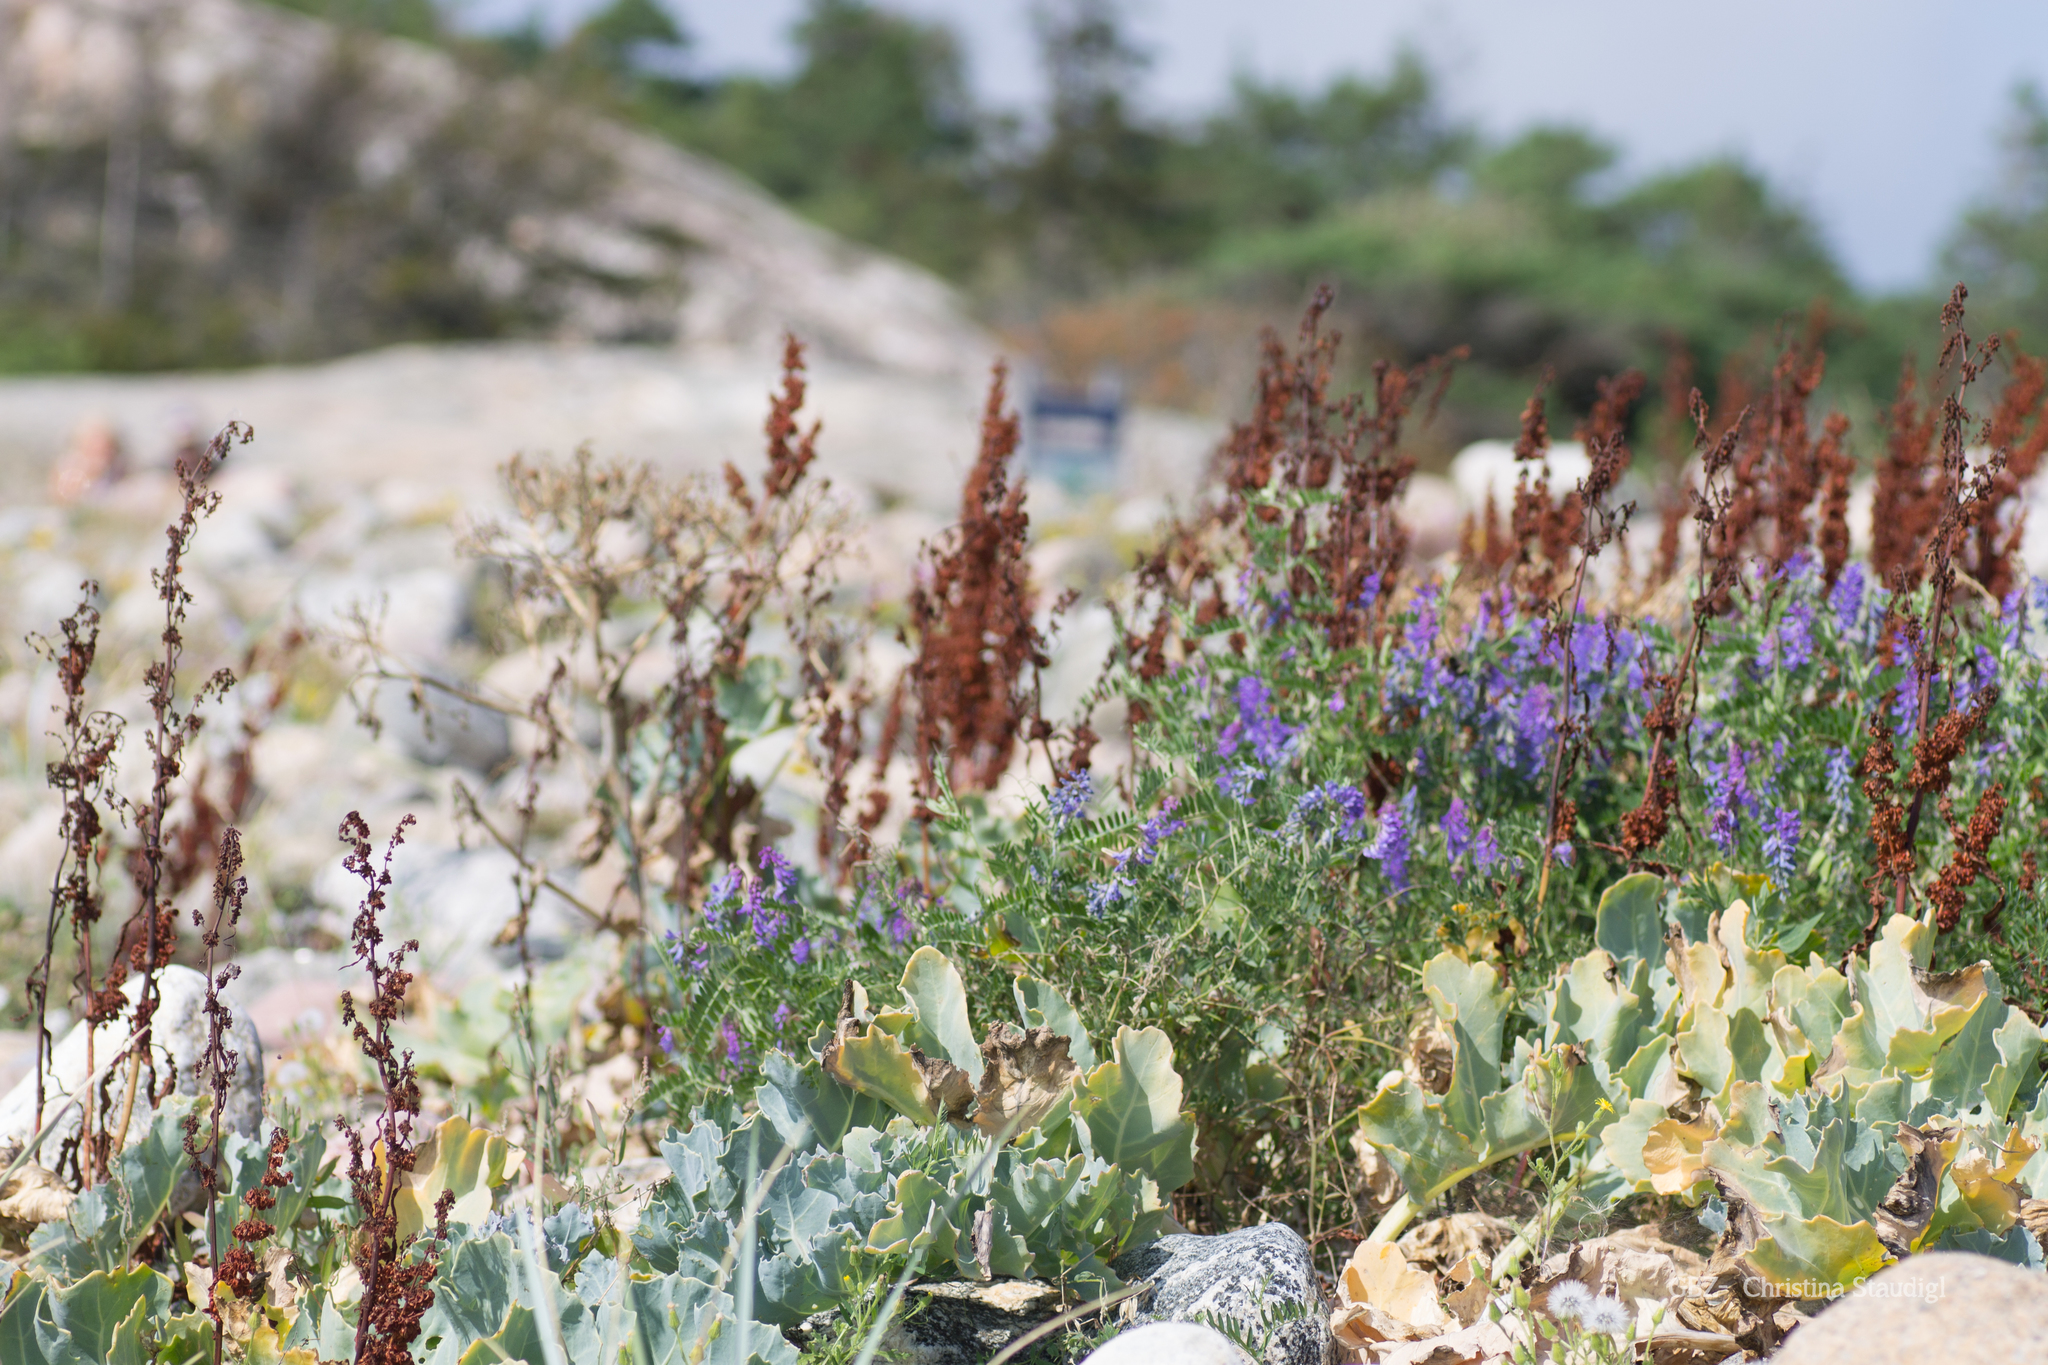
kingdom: Plantae
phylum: Tracheophyta
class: Magnoliopsida
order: Brassicales
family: Brassicaceae
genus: Crambe
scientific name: Crambe maritima
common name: Sea-kale
